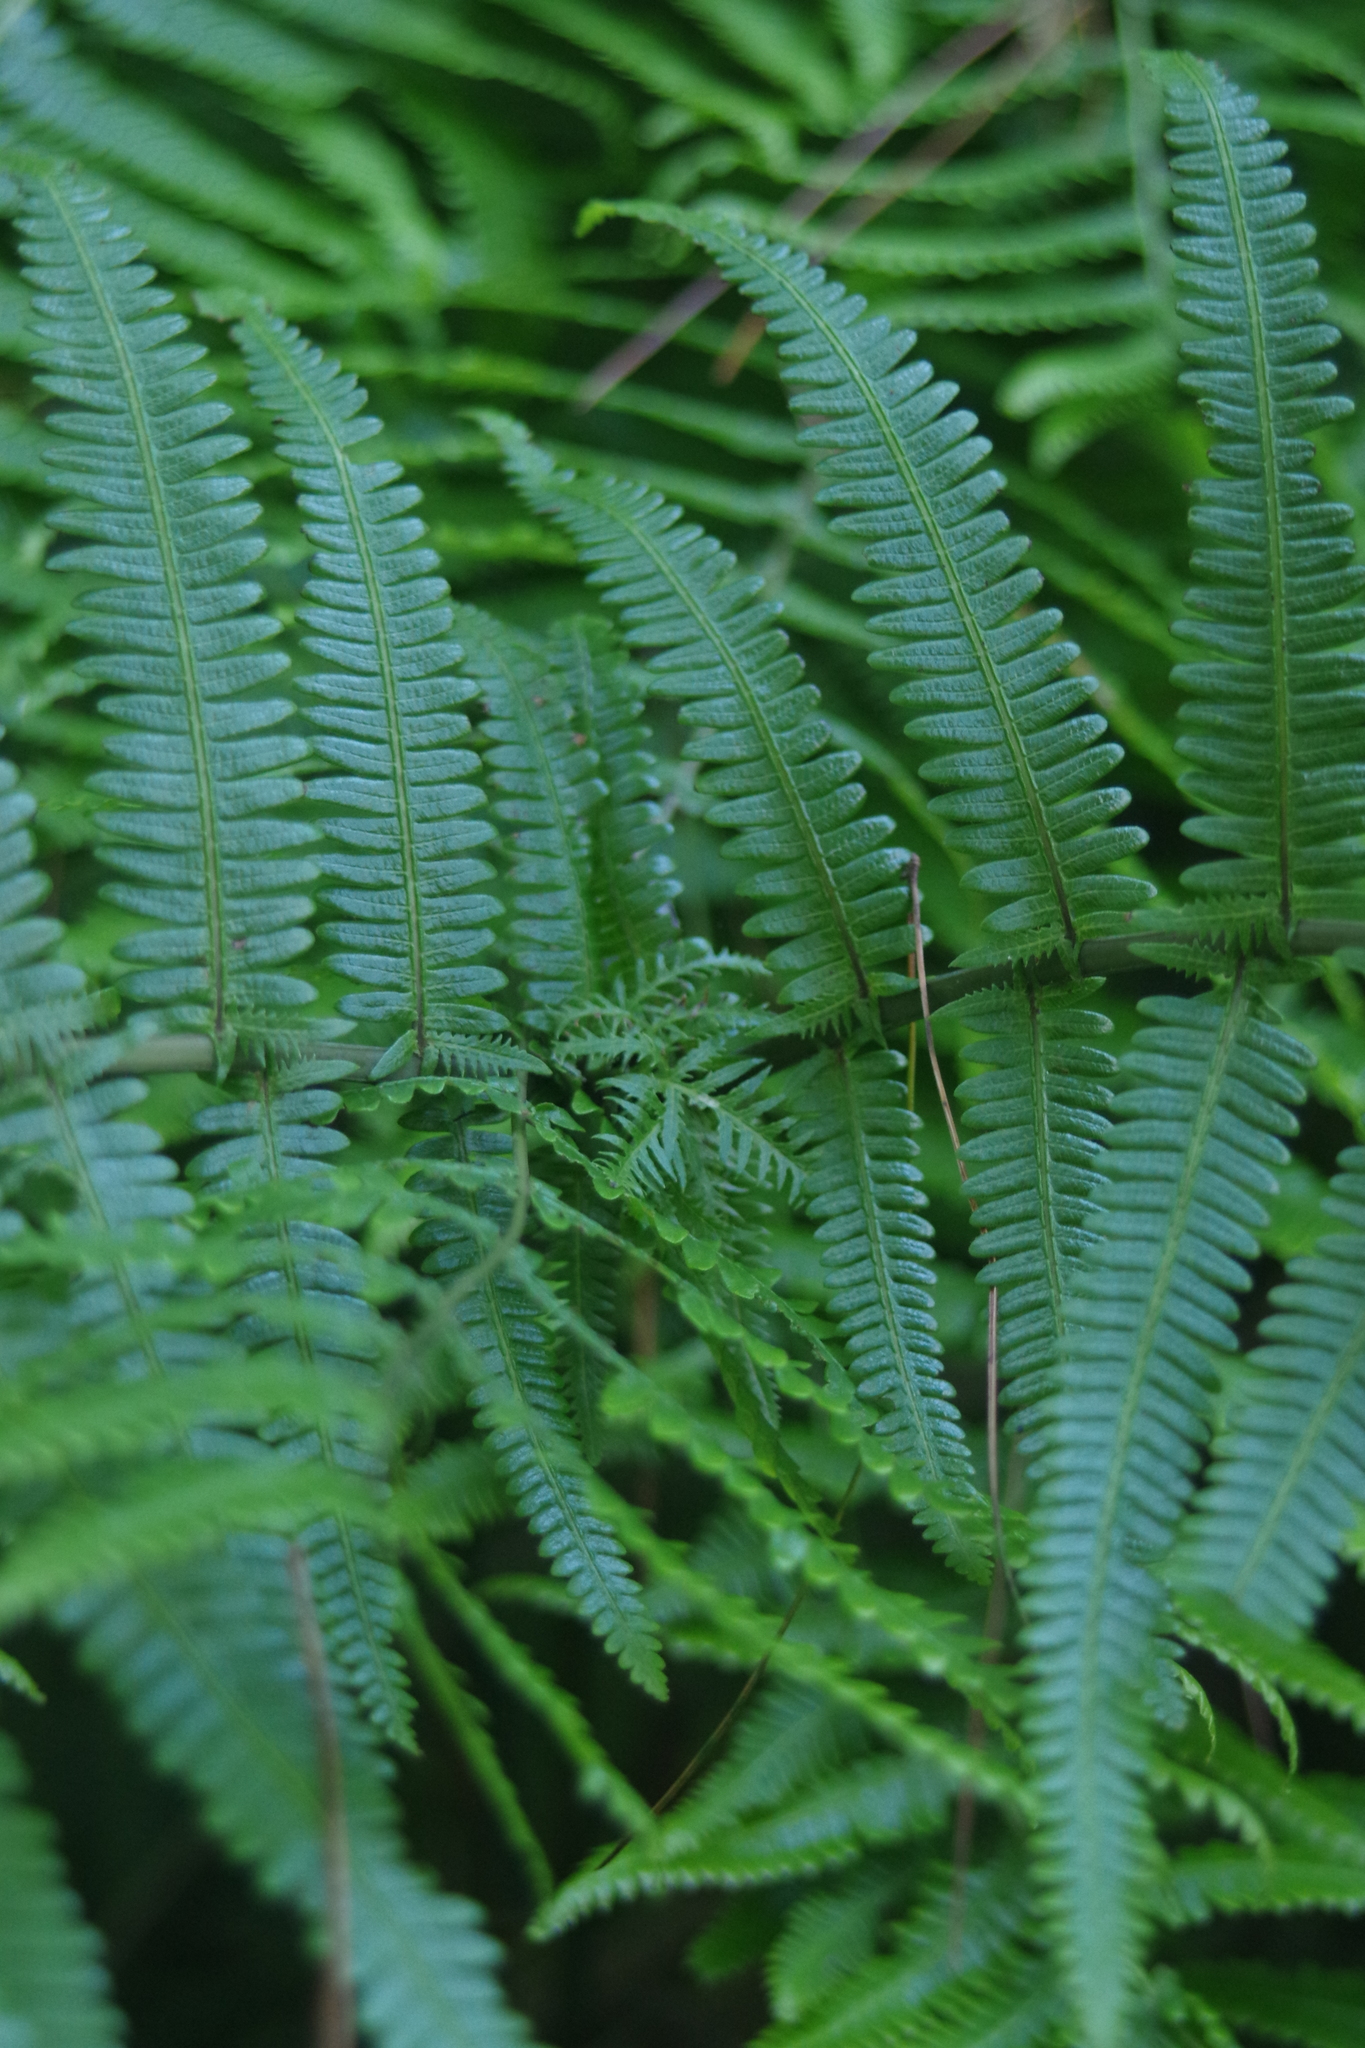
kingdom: Plantae
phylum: Tracheophyta
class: Polypodiopsida
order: Gleicheniales
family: Gleicheniaceae
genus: Diplopterygium
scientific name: Diplopterygium glaucum
